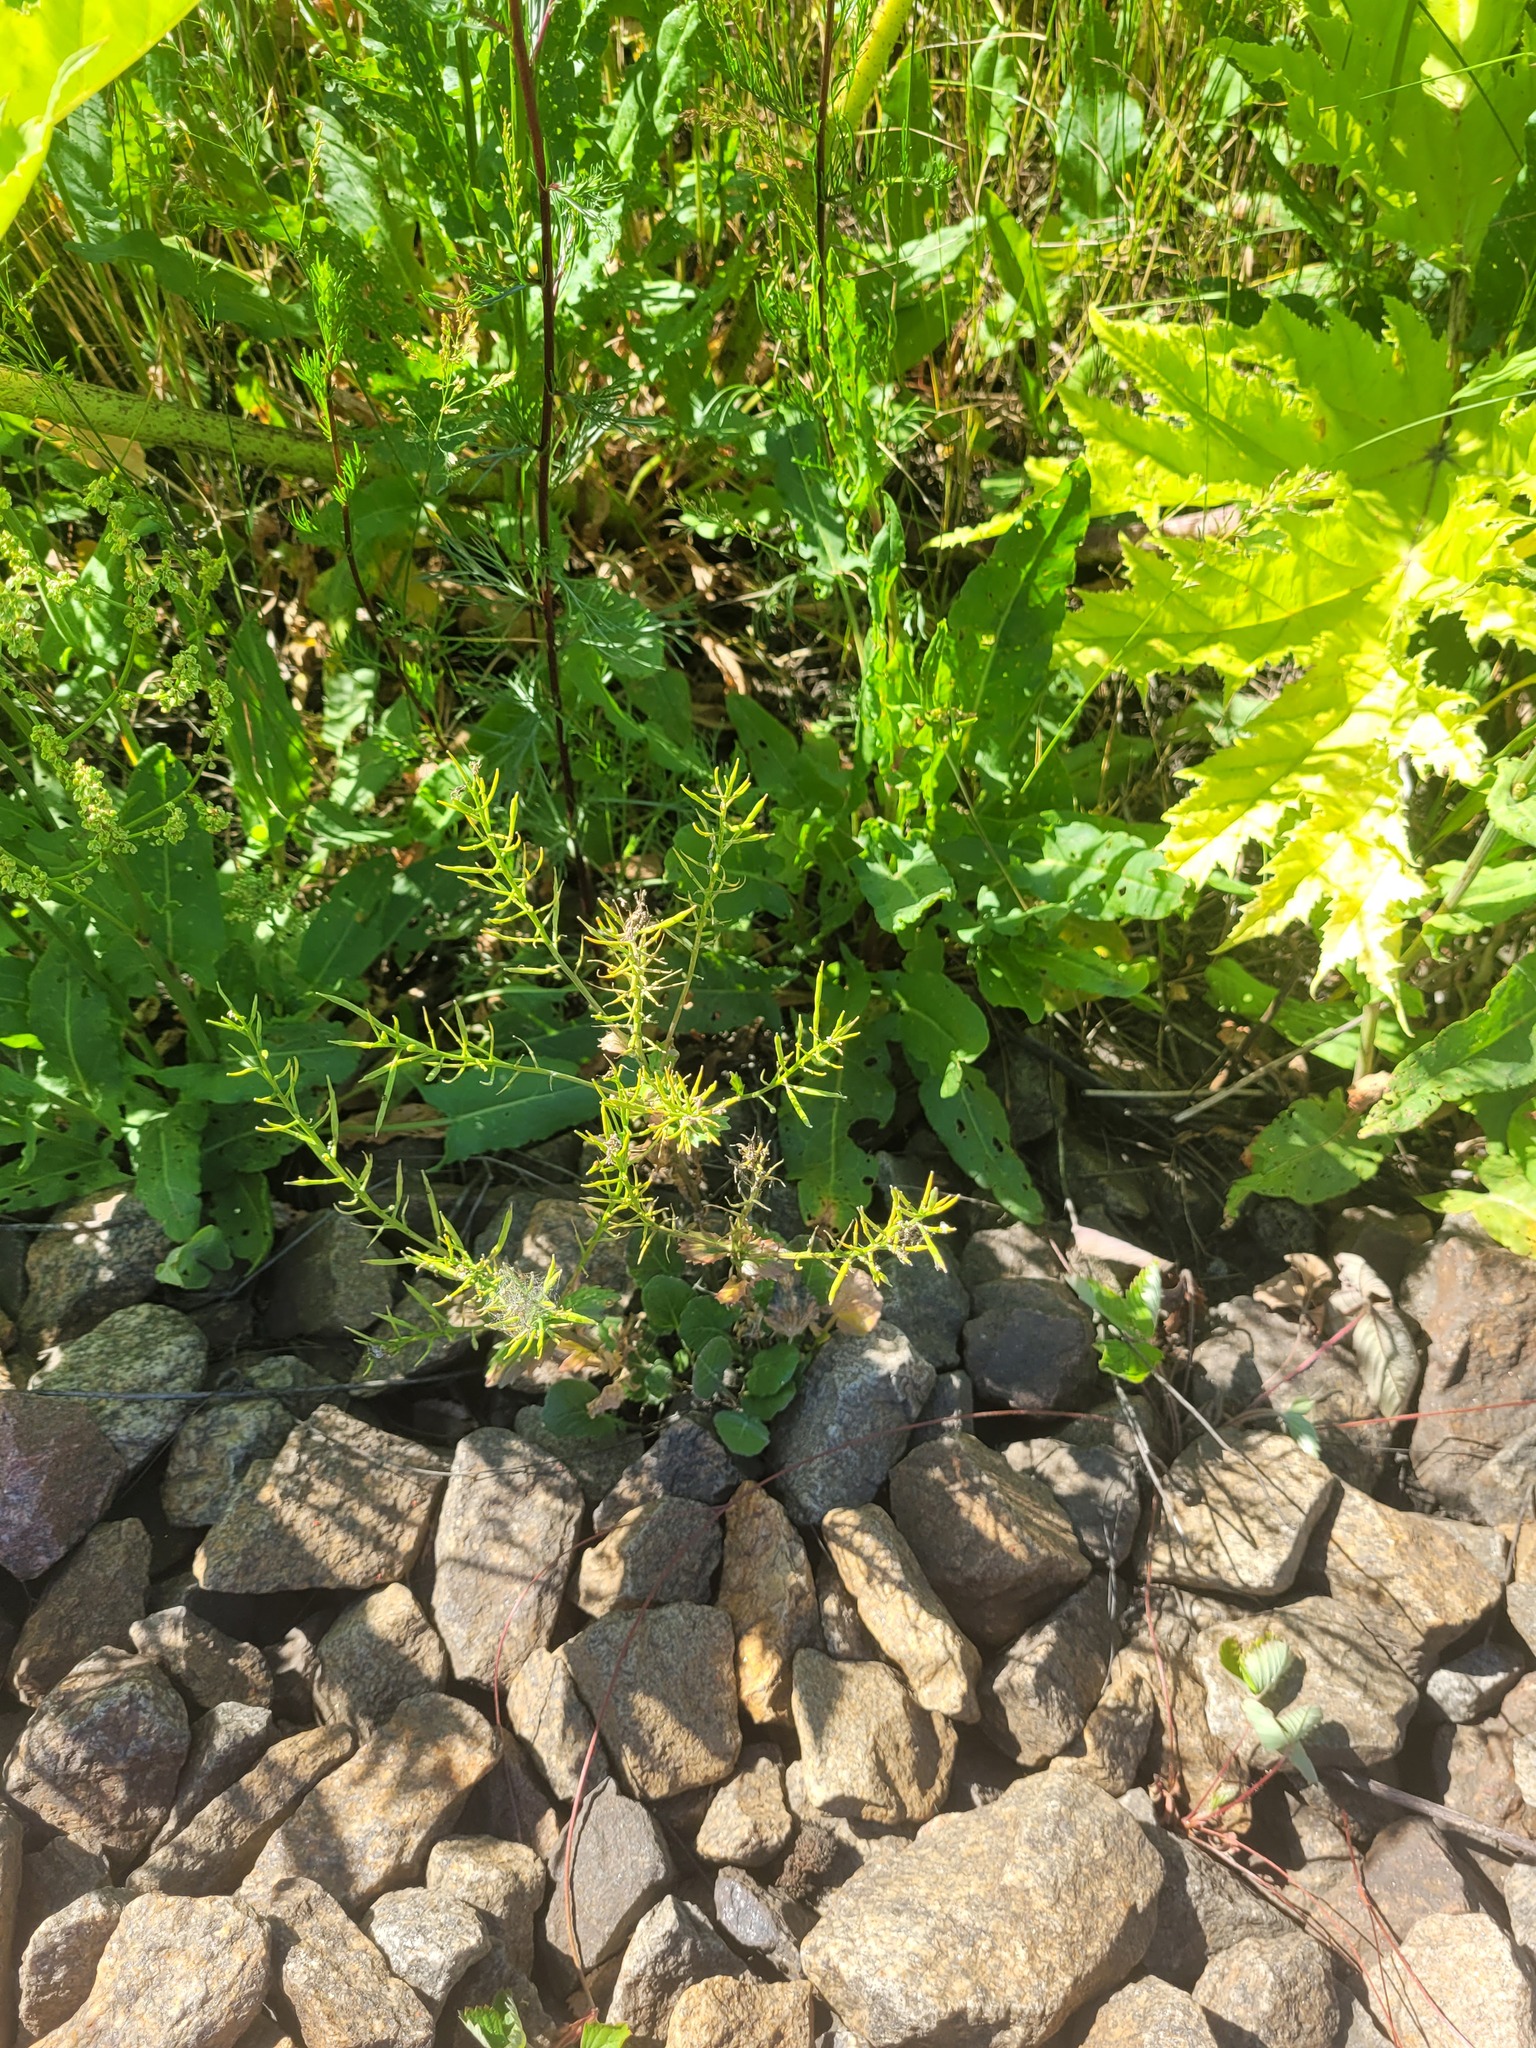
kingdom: Plantae
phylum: Tracheophyta
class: Magnoliopsida
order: Brassicales
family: Brassicaceae
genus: Barbarea
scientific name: Barbarea vulgaris
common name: Cressy-greens
